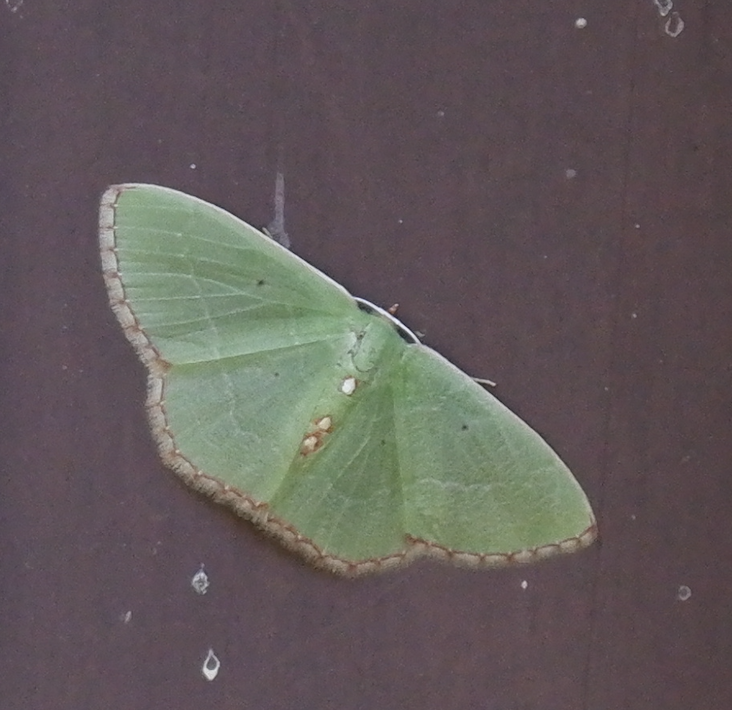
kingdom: Animalia
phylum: Arthropoda
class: Insecta
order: Lepidoptera
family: Geometridae
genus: Nemoria
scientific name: Nemoria lixaria
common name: Red-bordered emerald
